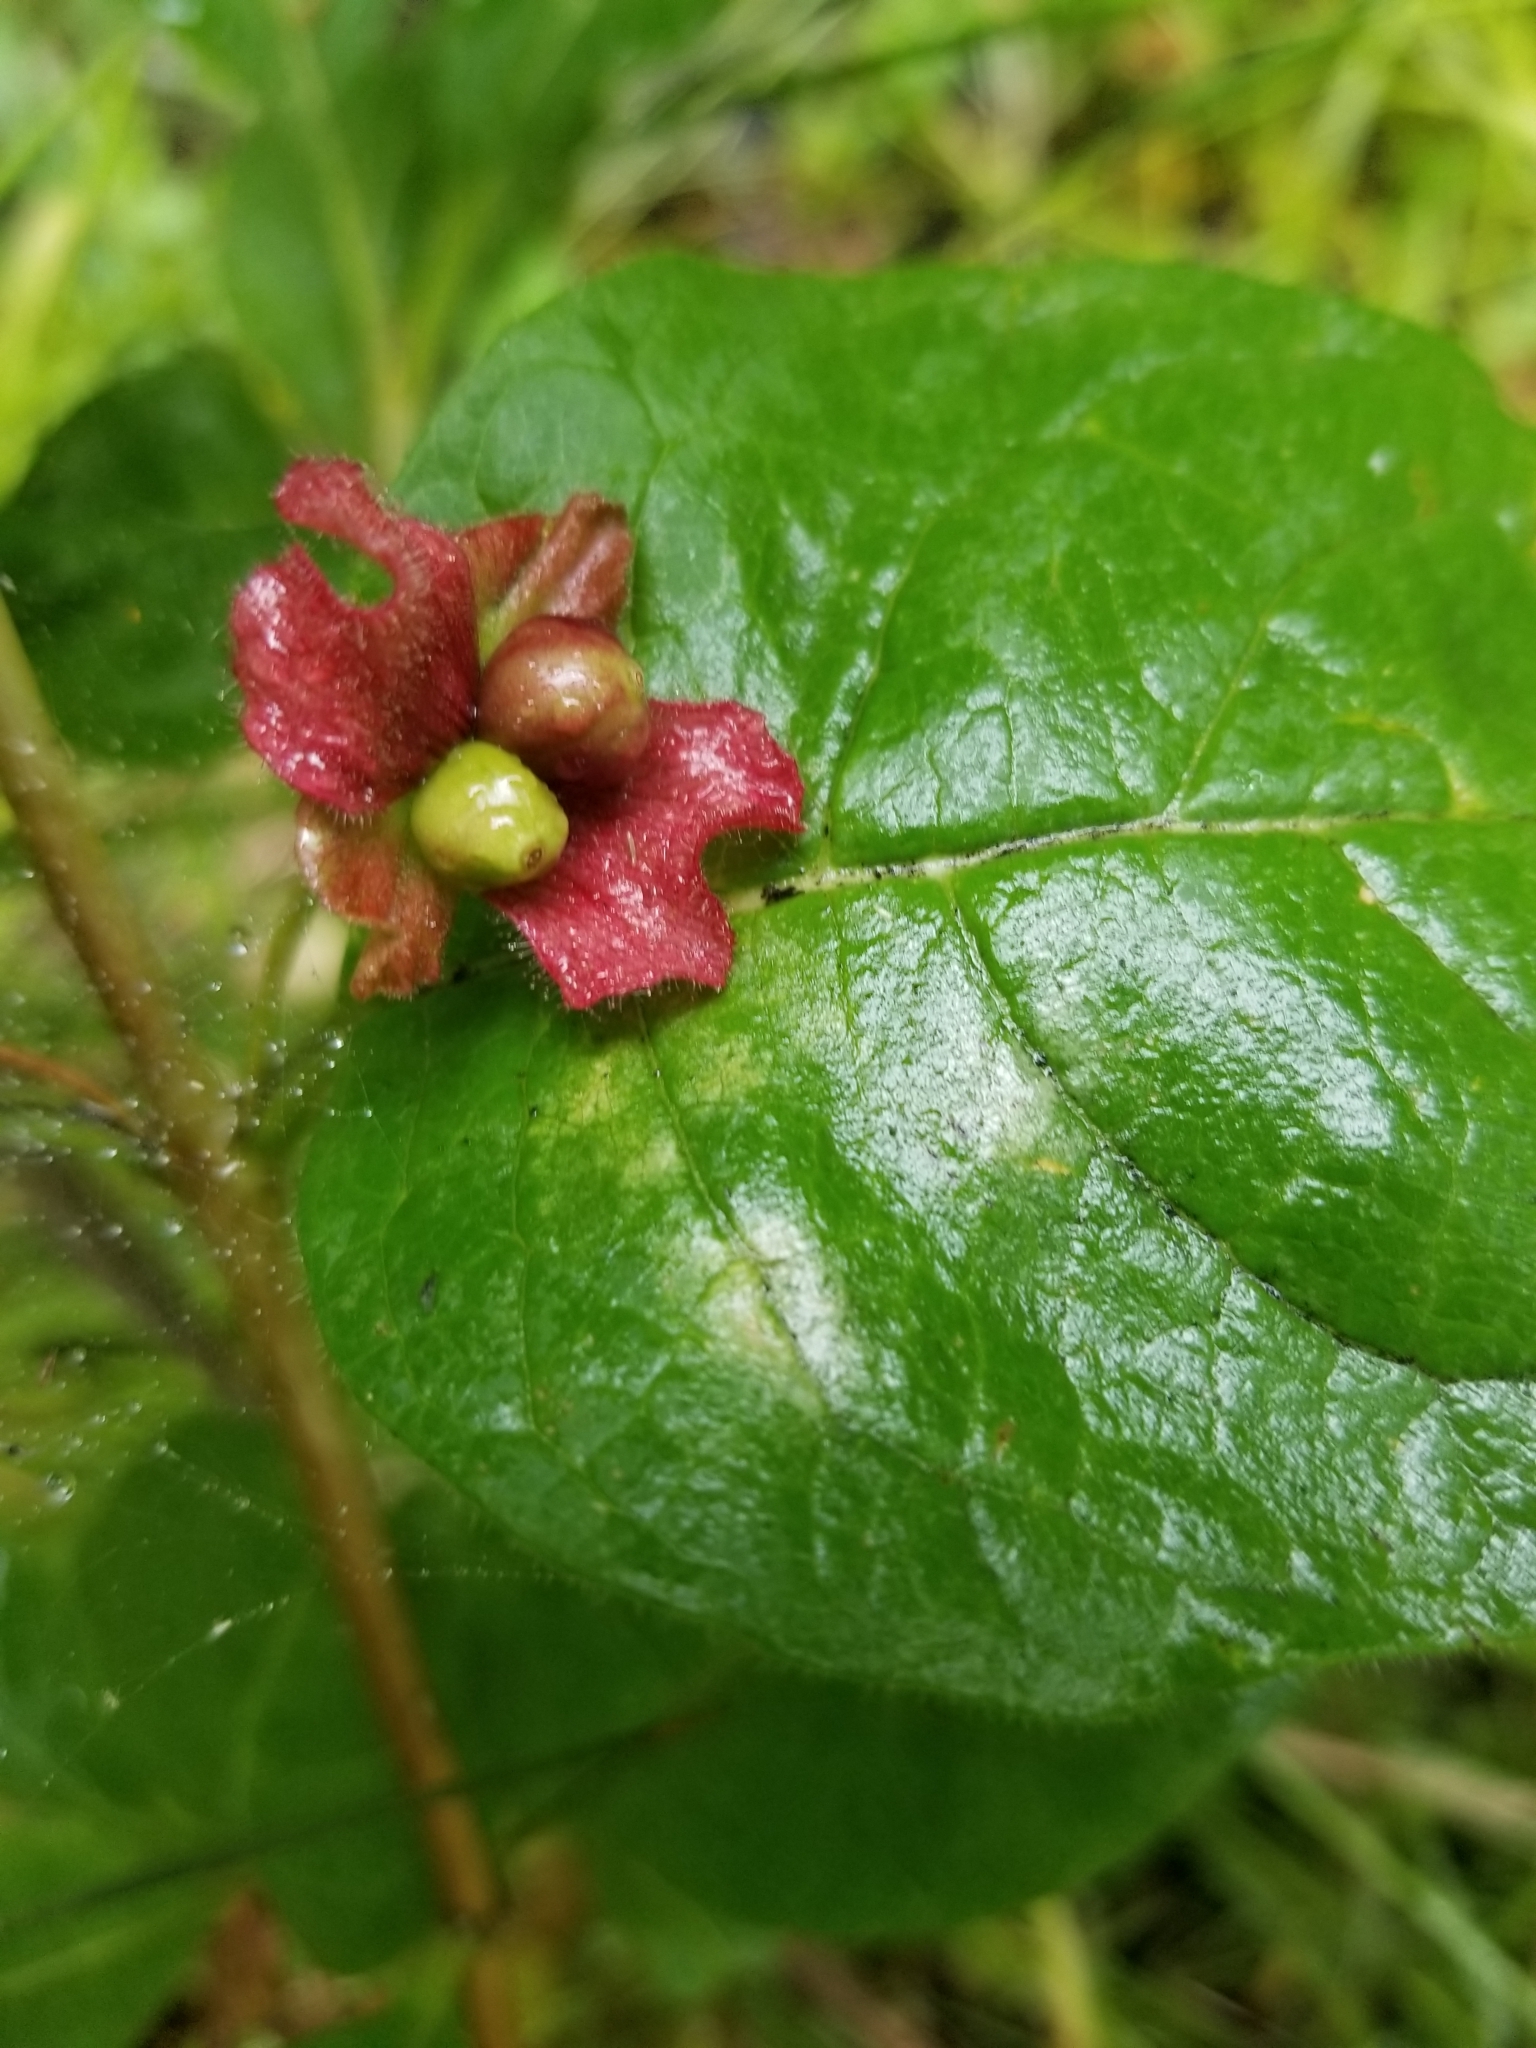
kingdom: Plantae
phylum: Tracheophyta
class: Magnoliopsida
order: Dipsacales
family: Caprifoliaceae
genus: Lonicera
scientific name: Lonicera involucrata
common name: Californian honeysuckle
